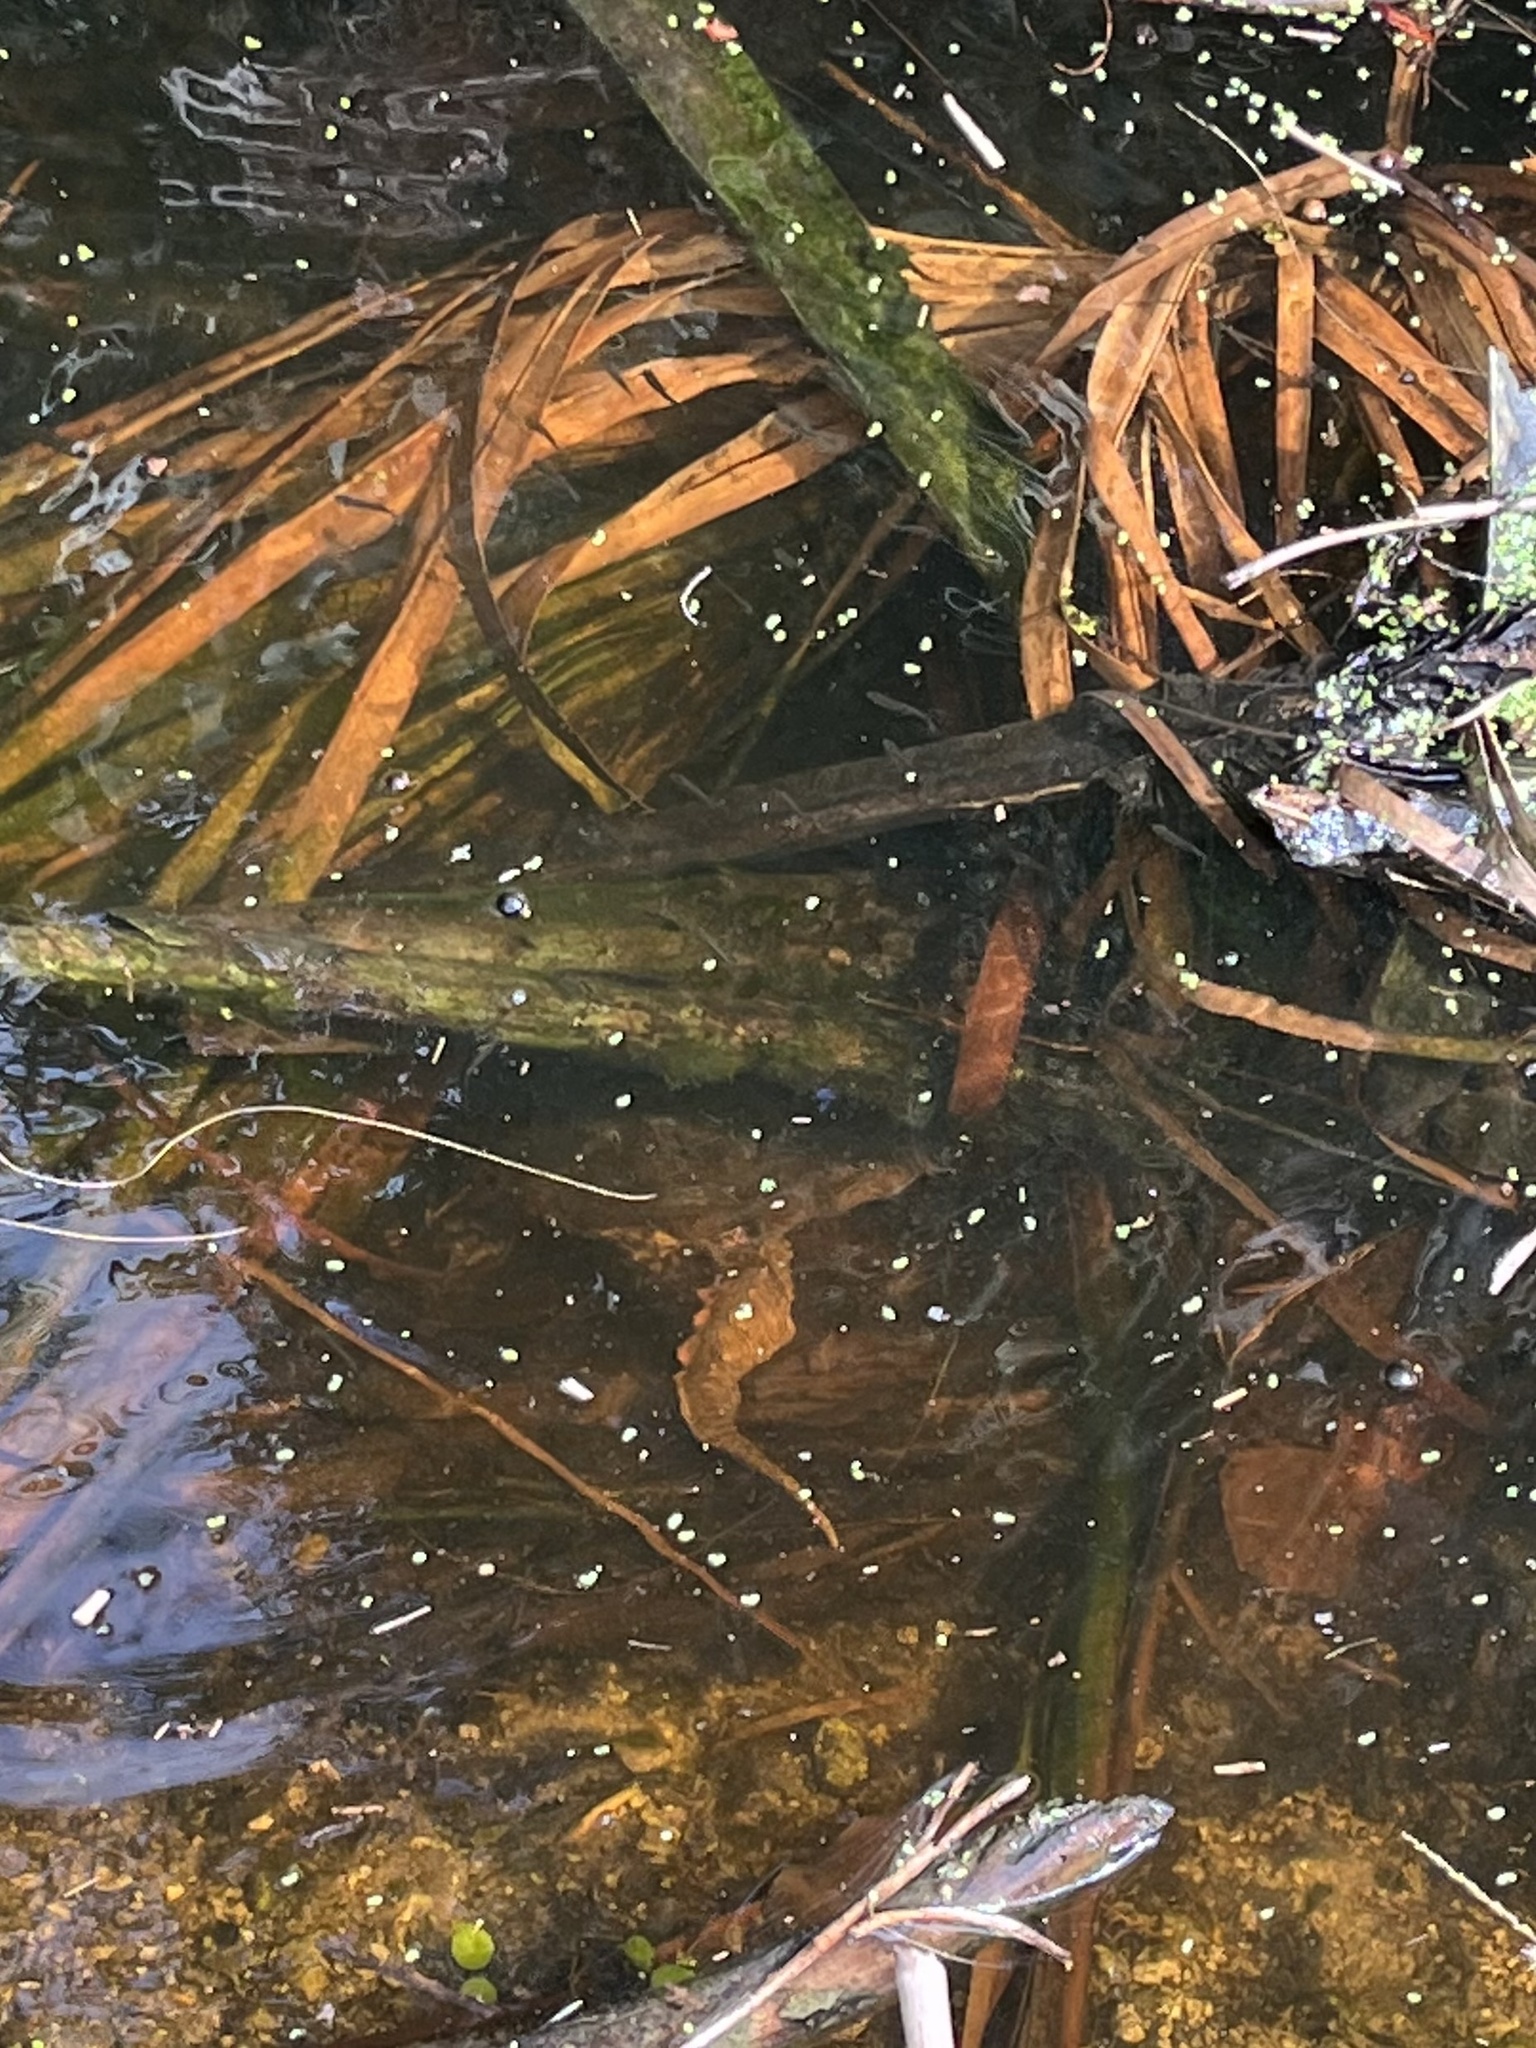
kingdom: Animalia
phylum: Chordata
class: Testudines
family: Chelydridae
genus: Chelydra
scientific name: Chelydra serpentina
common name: Common snapping turtle
